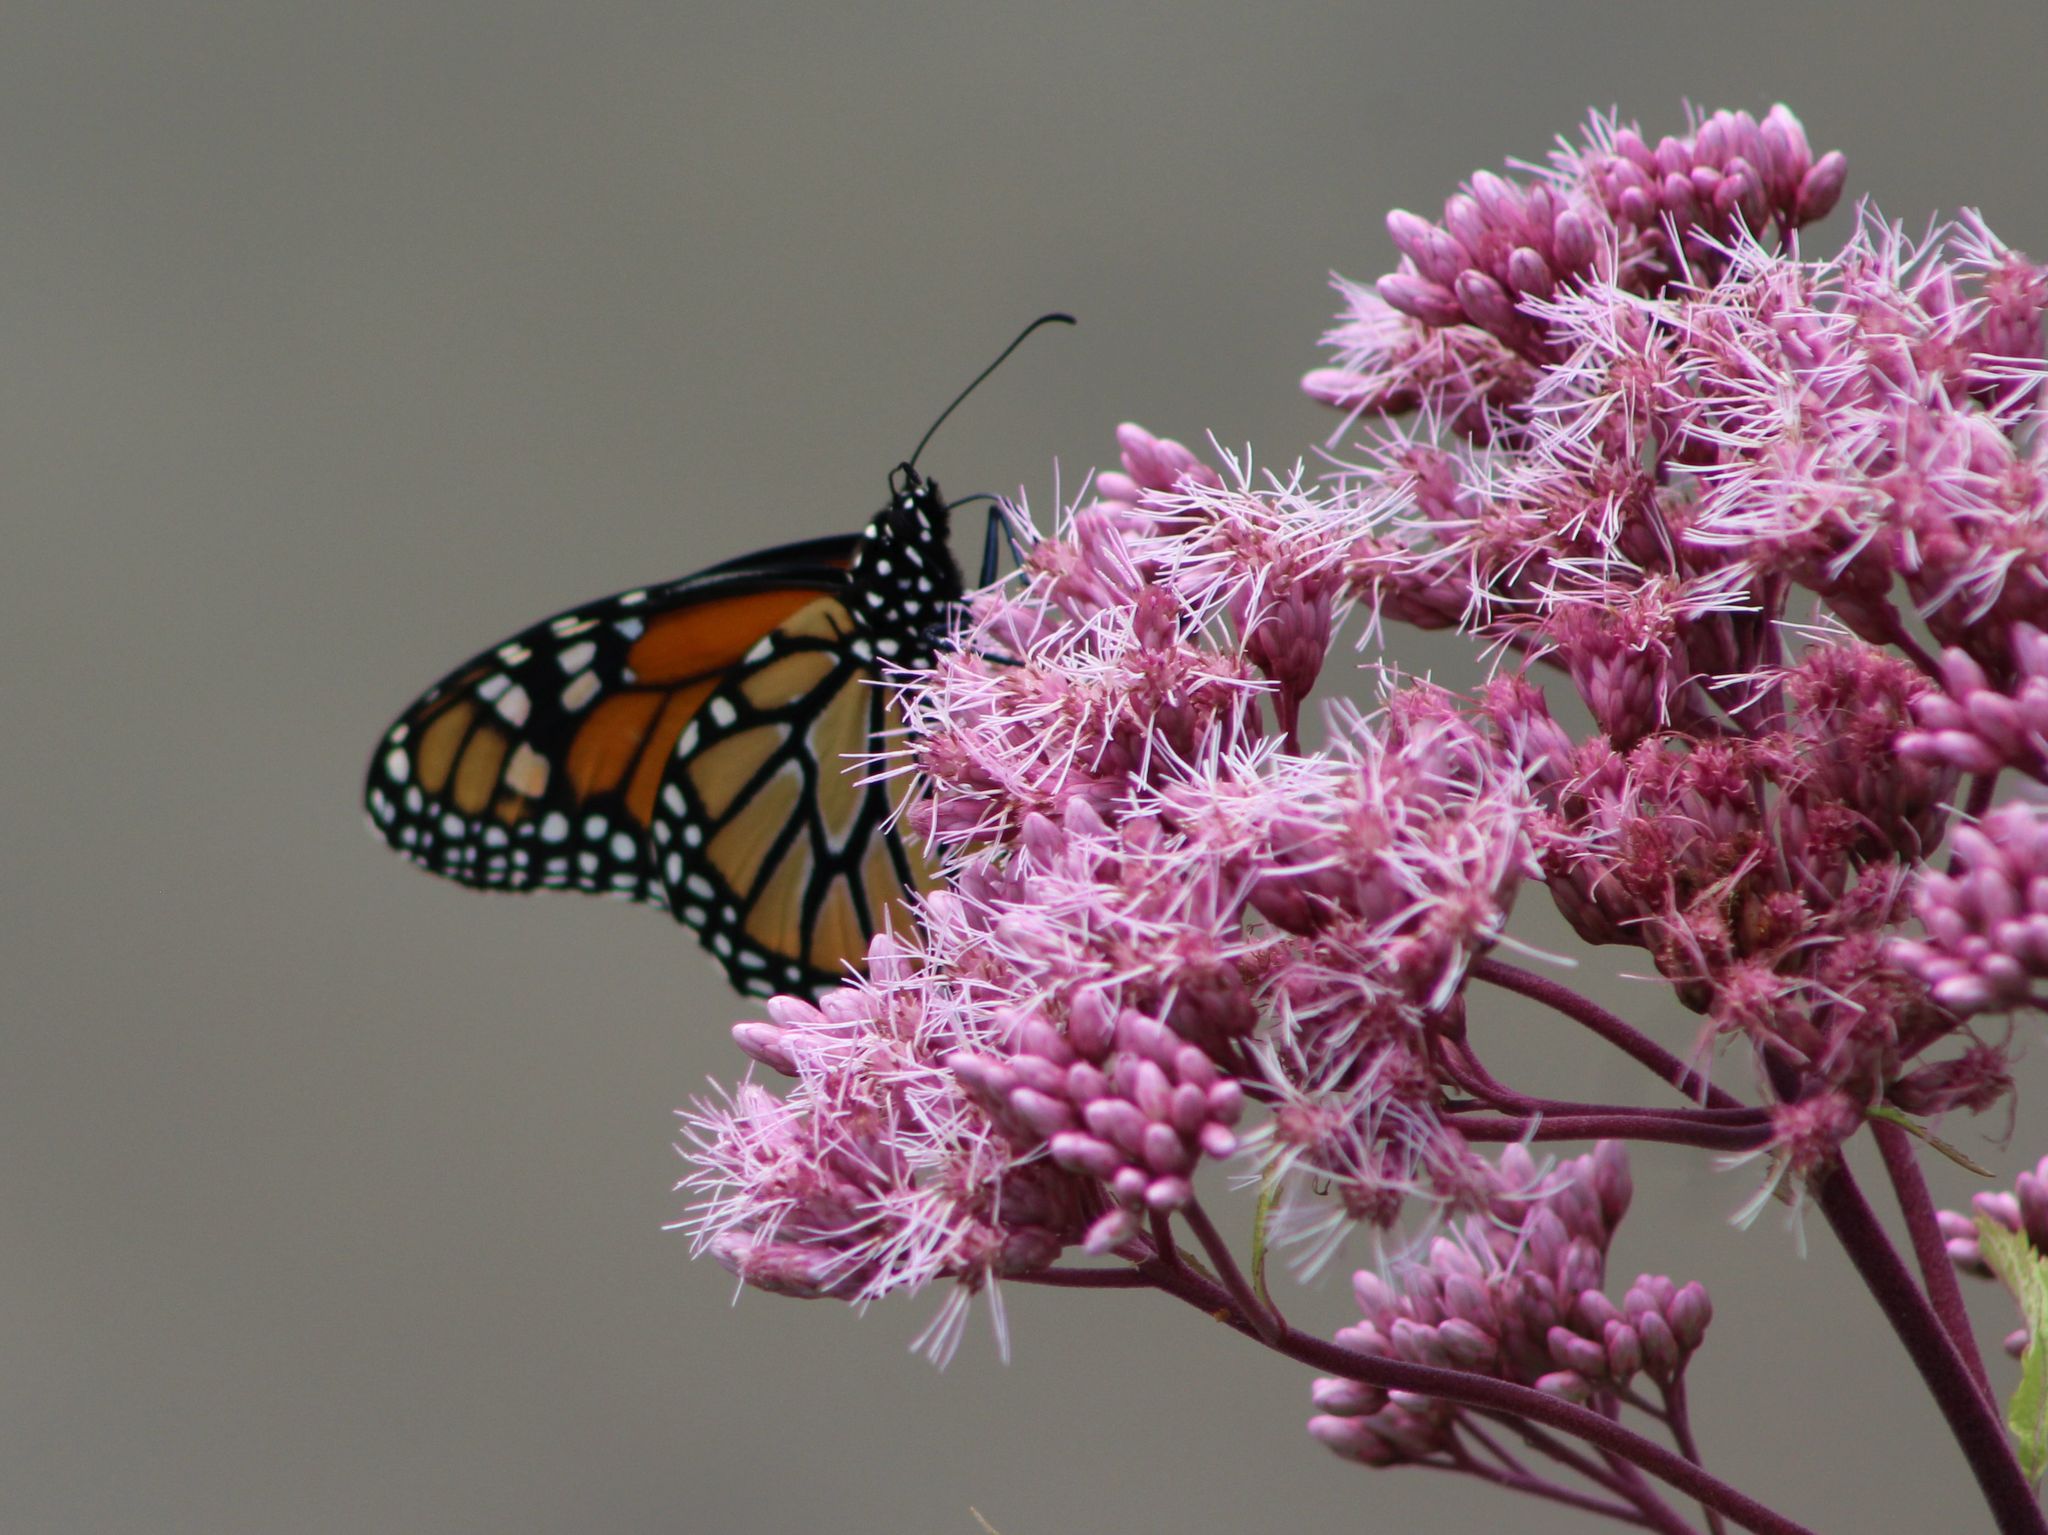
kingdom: Animalia
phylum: Arthropoda
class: Insecta
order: Lepidoptera
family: Nymphalidae
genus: Danaus
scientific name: Danaus plexippus
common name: Monarch
